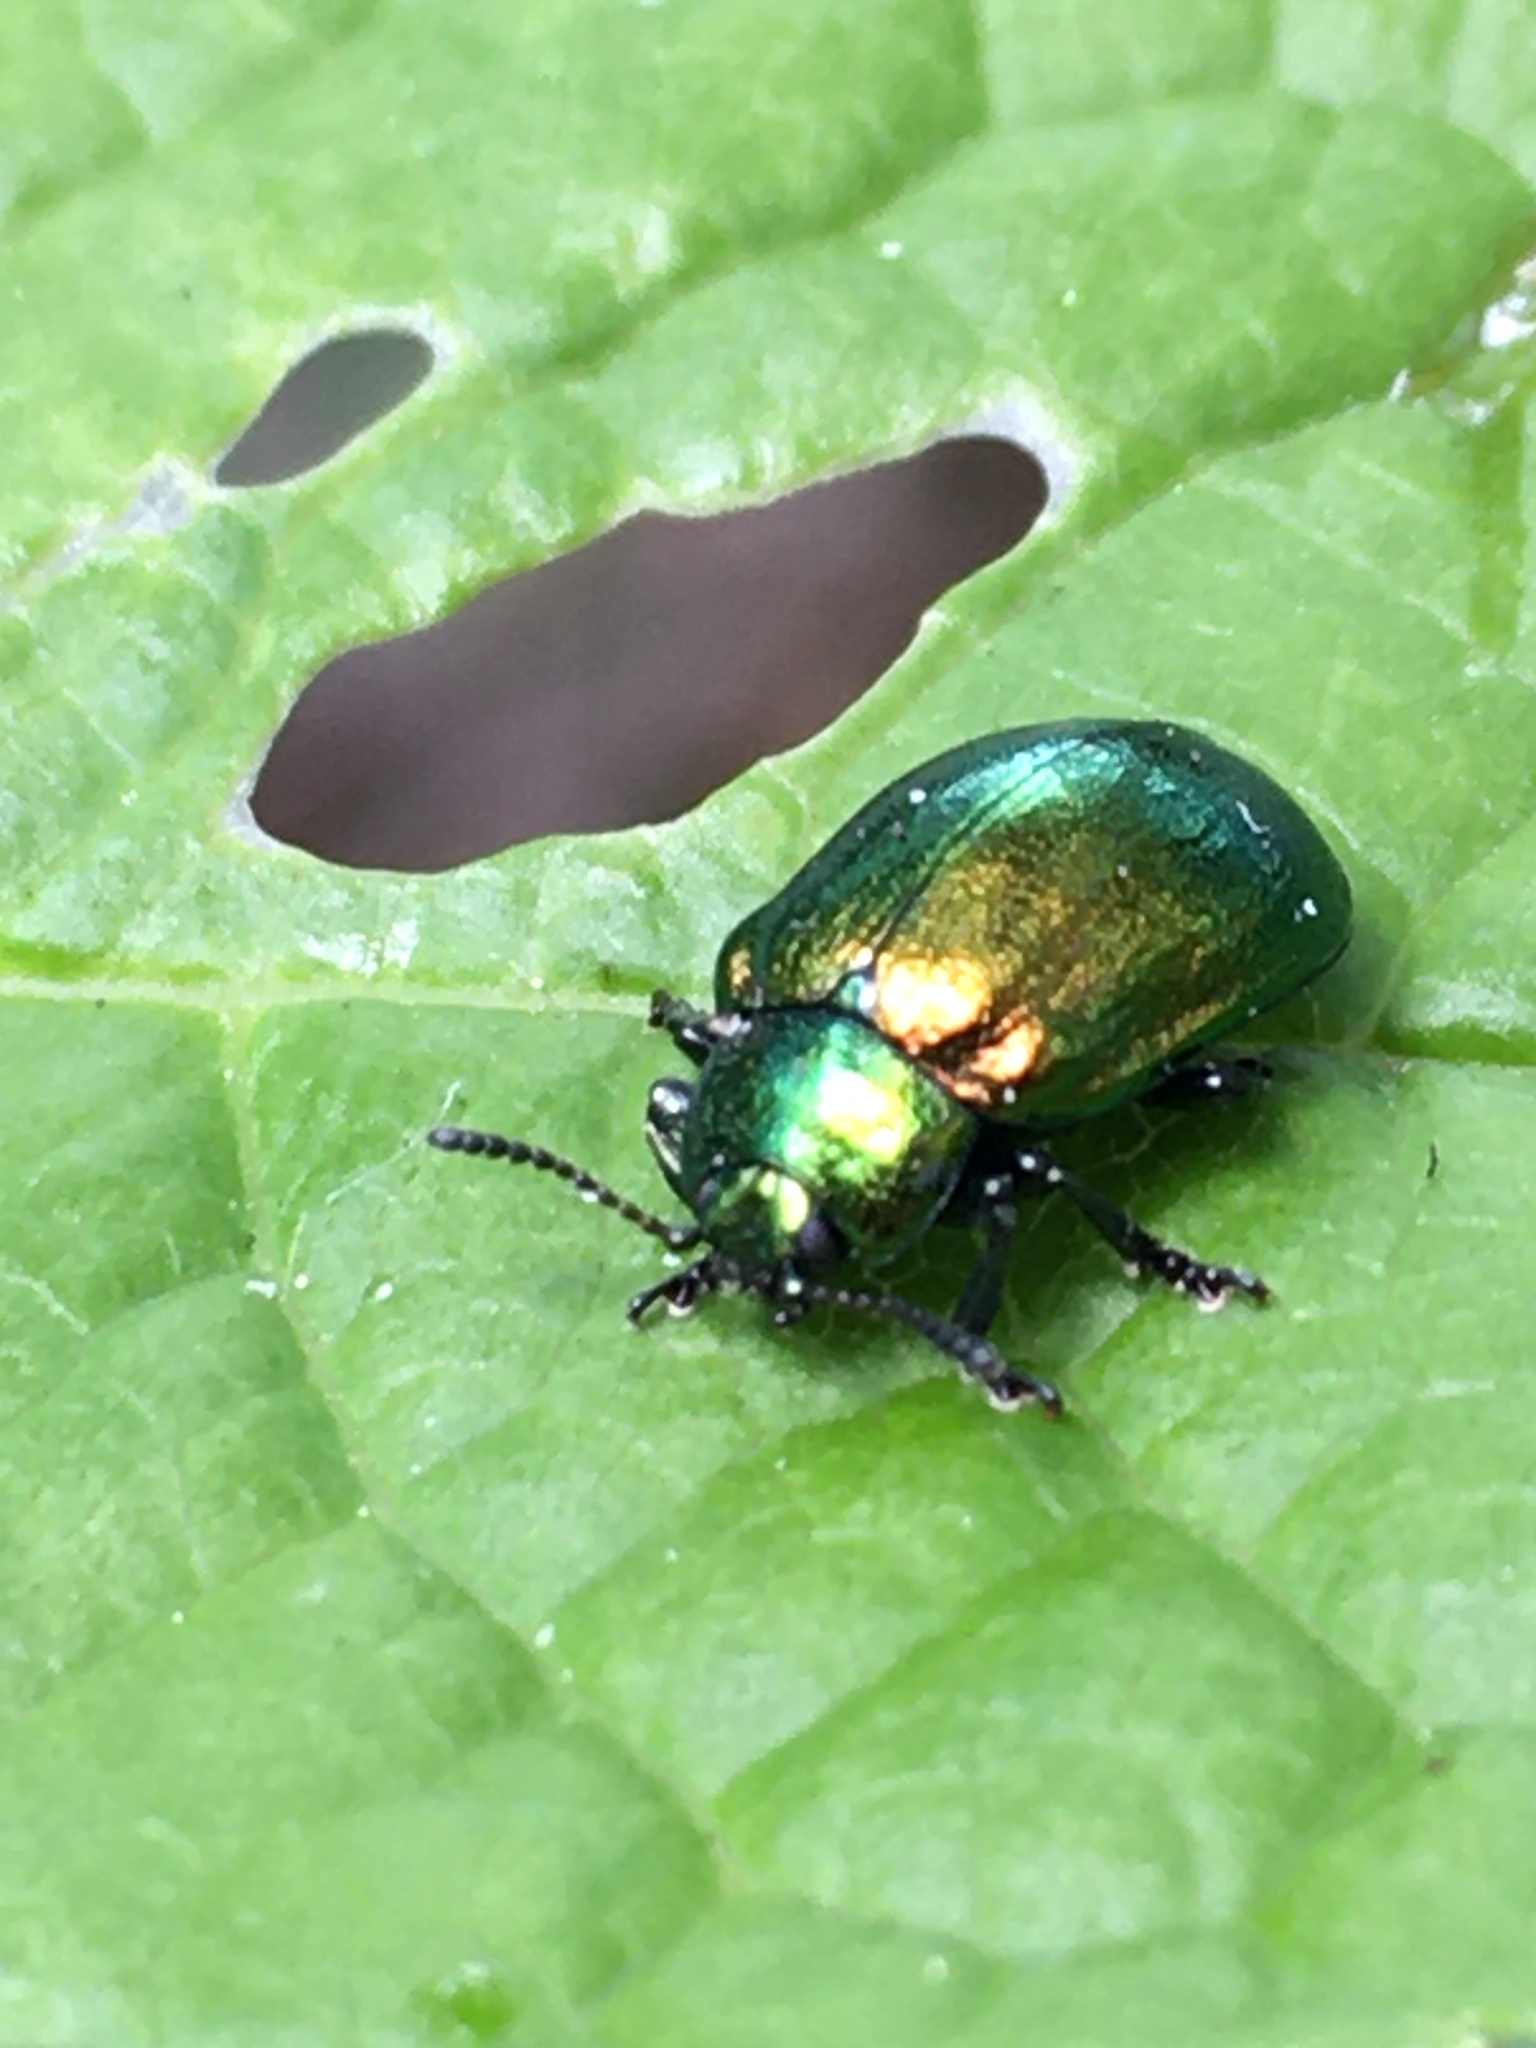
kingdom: Animalia
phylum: Arthropoda
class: Insecta
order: Coleoptera
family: Chrysomelidae
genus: Plagiosterna
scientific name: Plagiosterna aenea
